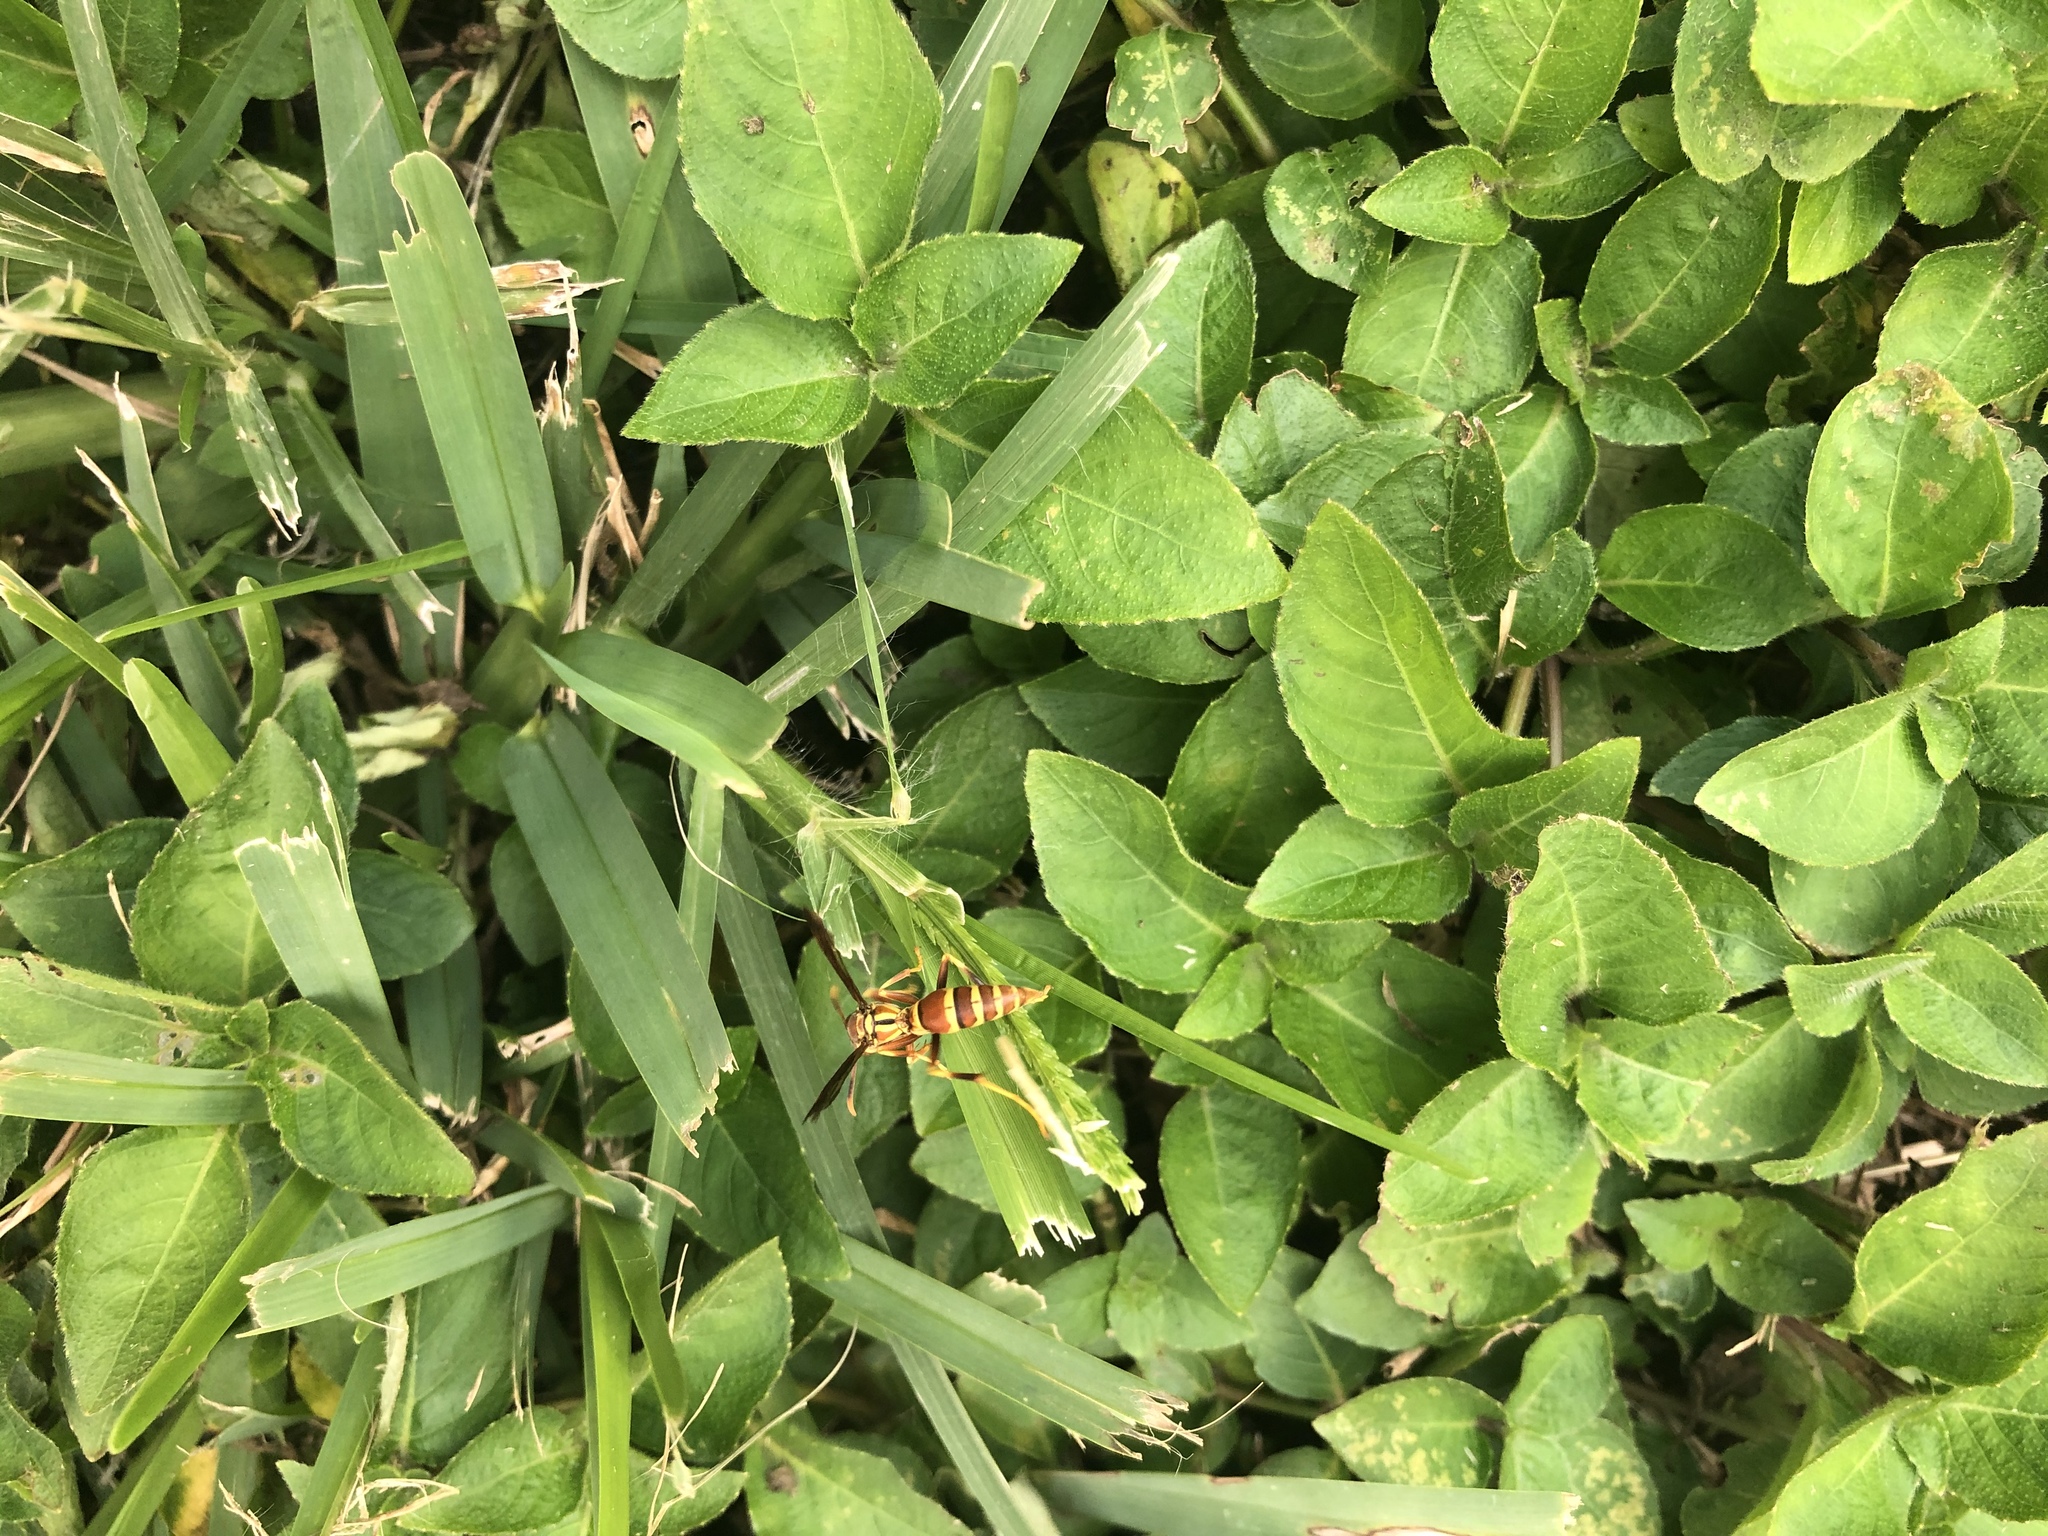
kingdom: Animalia
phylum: Arthropoda
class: Insecta
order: Hymenoptera
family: Eumenidae
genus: Polistes
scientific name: Polistes exclamans
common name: Paper wasp
